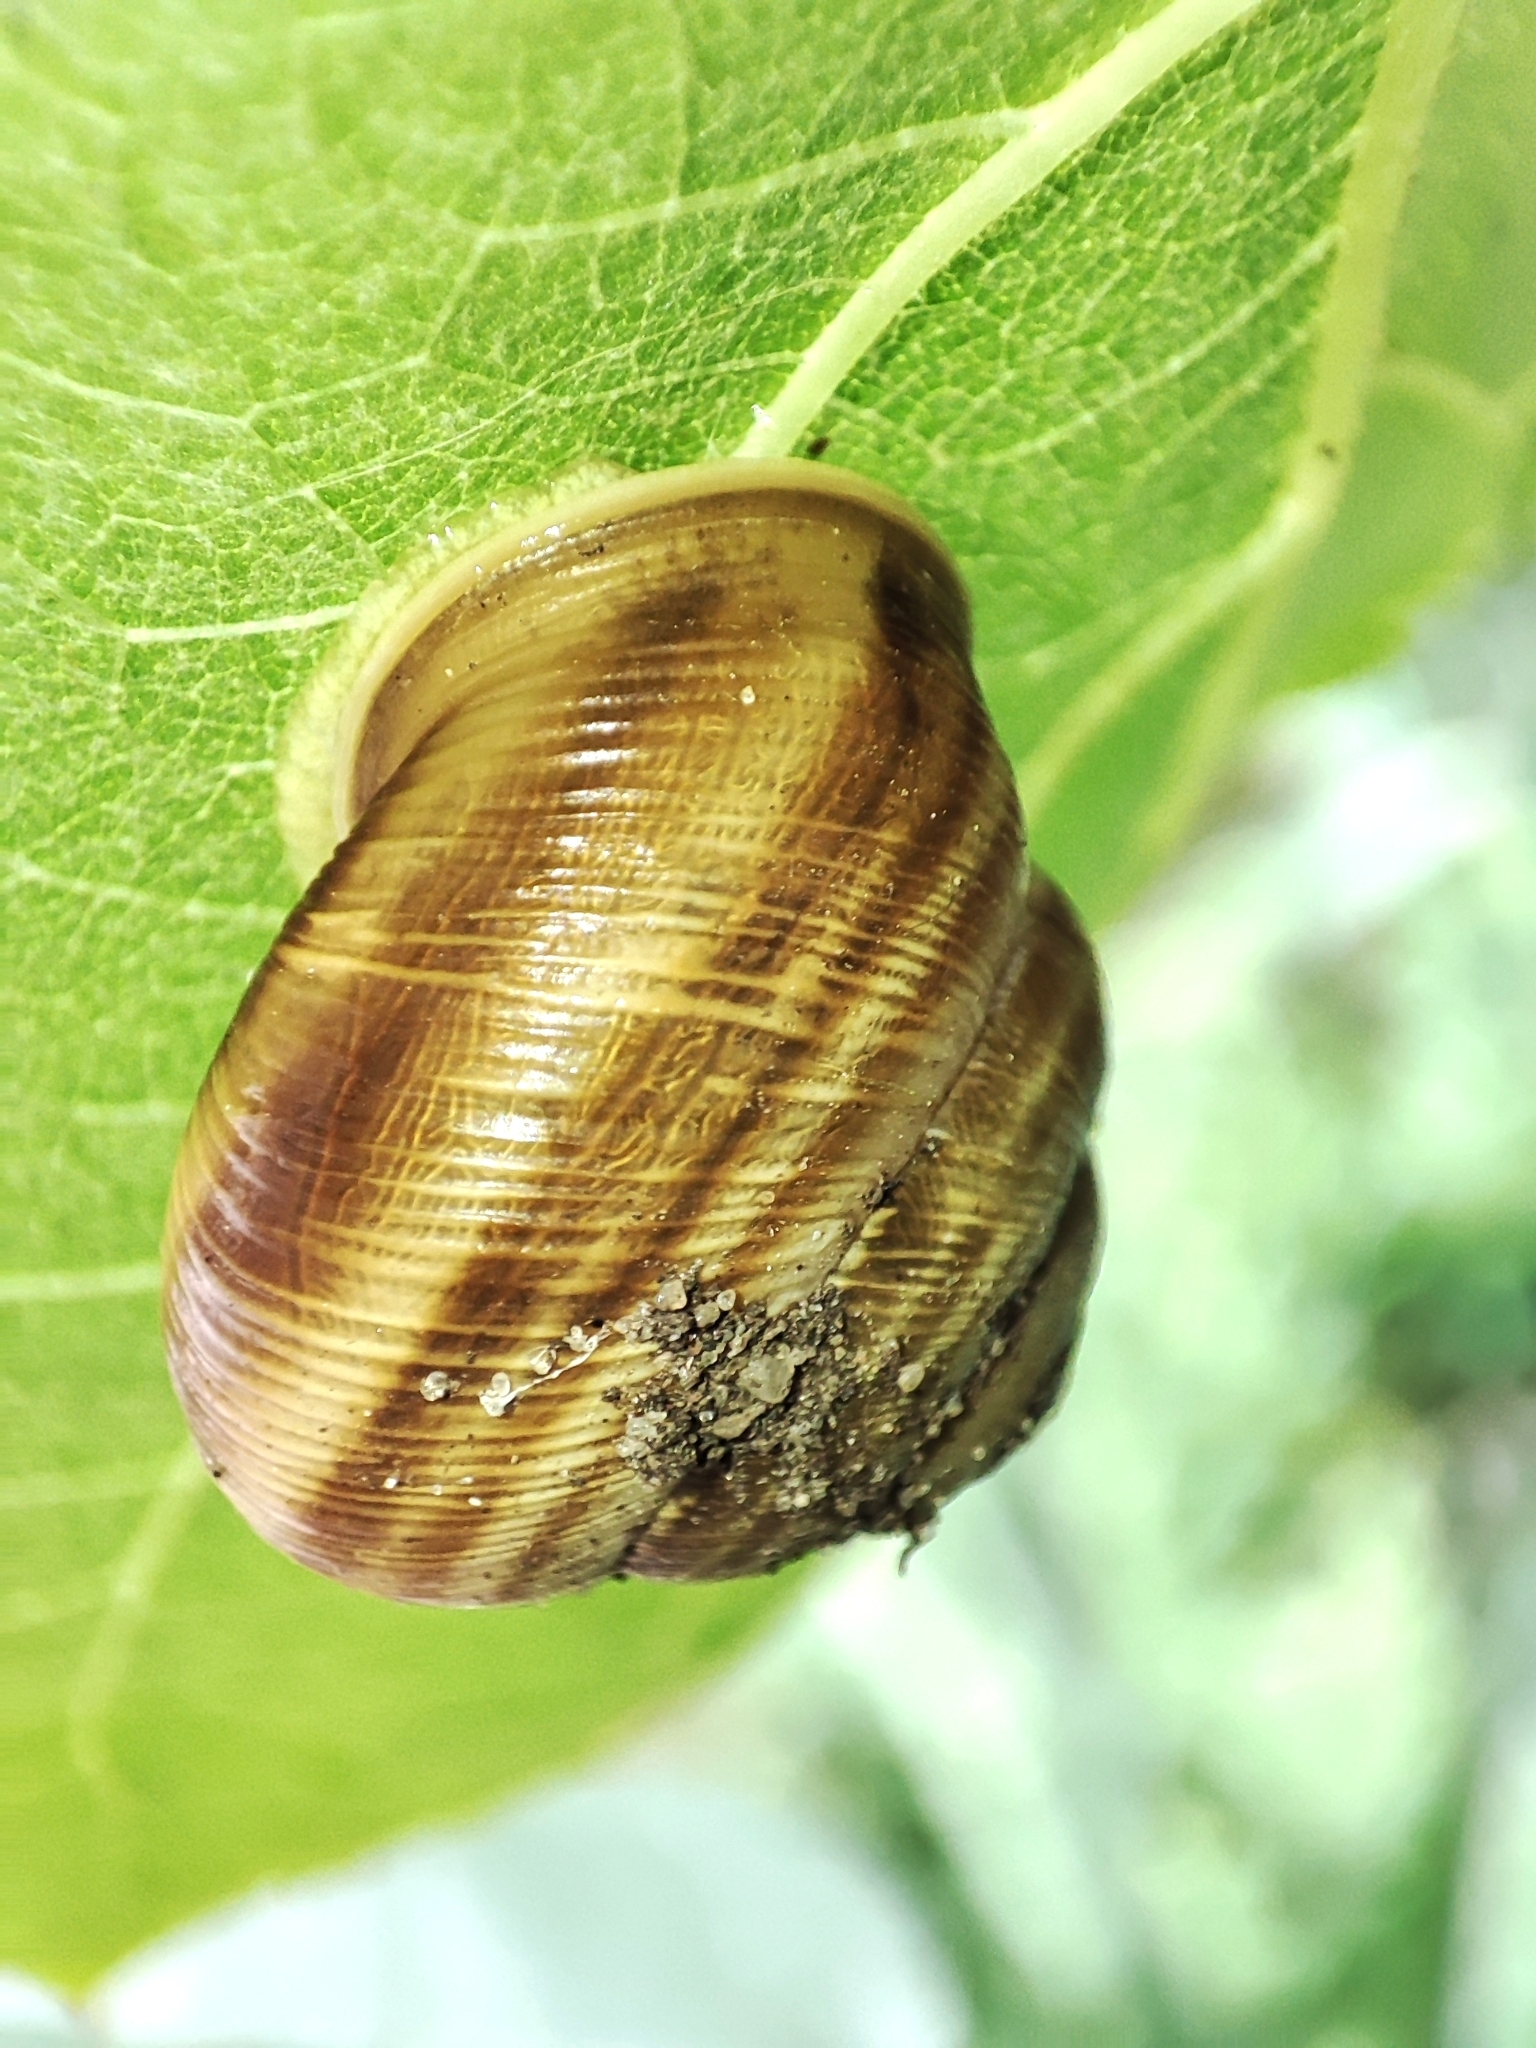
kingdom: Animalia
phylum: Mollusca
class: Gastropoda
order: Stylommatophora
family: Helicidae
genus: Caucasotachea
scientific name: Caucasotachea vindobonensis
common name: European helicid land snail
